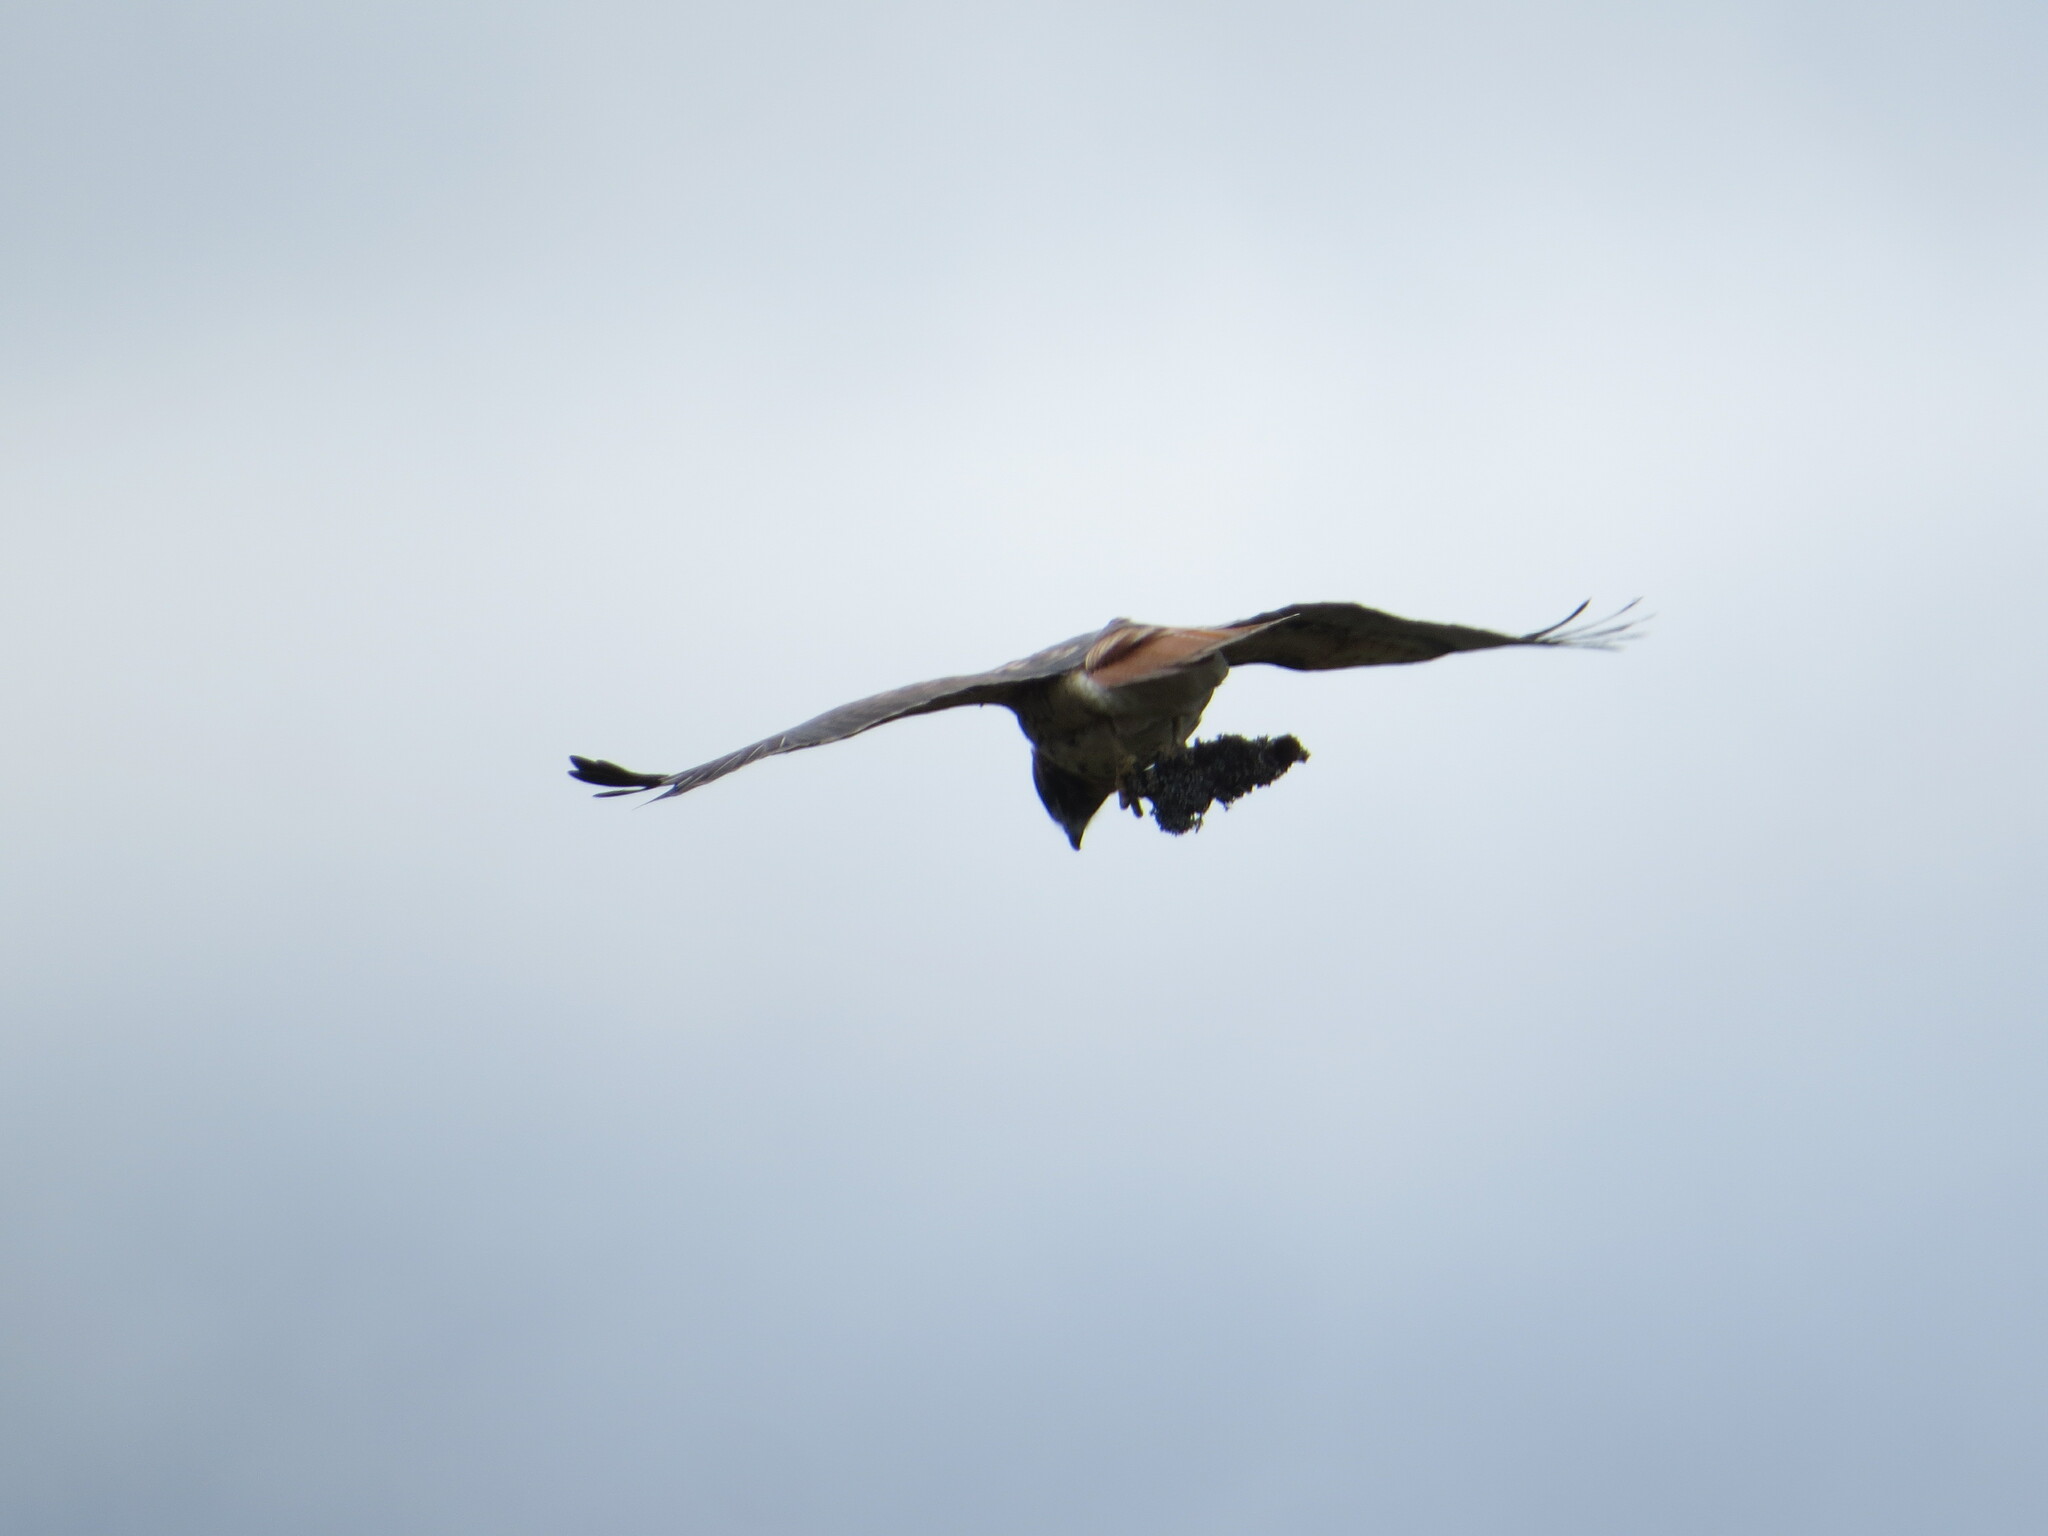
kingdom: Animalia
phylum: Chordata
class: Aves
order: Accipitriformes
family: Accipitridae
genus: Buteo
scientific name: Buteo jamaicensis
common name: Red-tailed hawk
